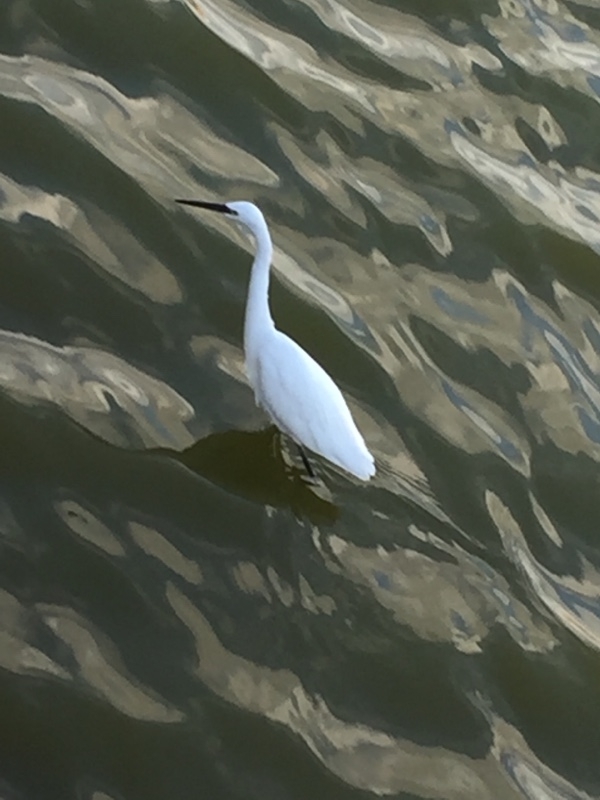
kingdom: Animalia
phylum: Chordata
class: Aves
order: Pelecaniformes
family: Ardeidae
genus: Egretta
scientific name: Egretta garzetta
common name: Little egret
